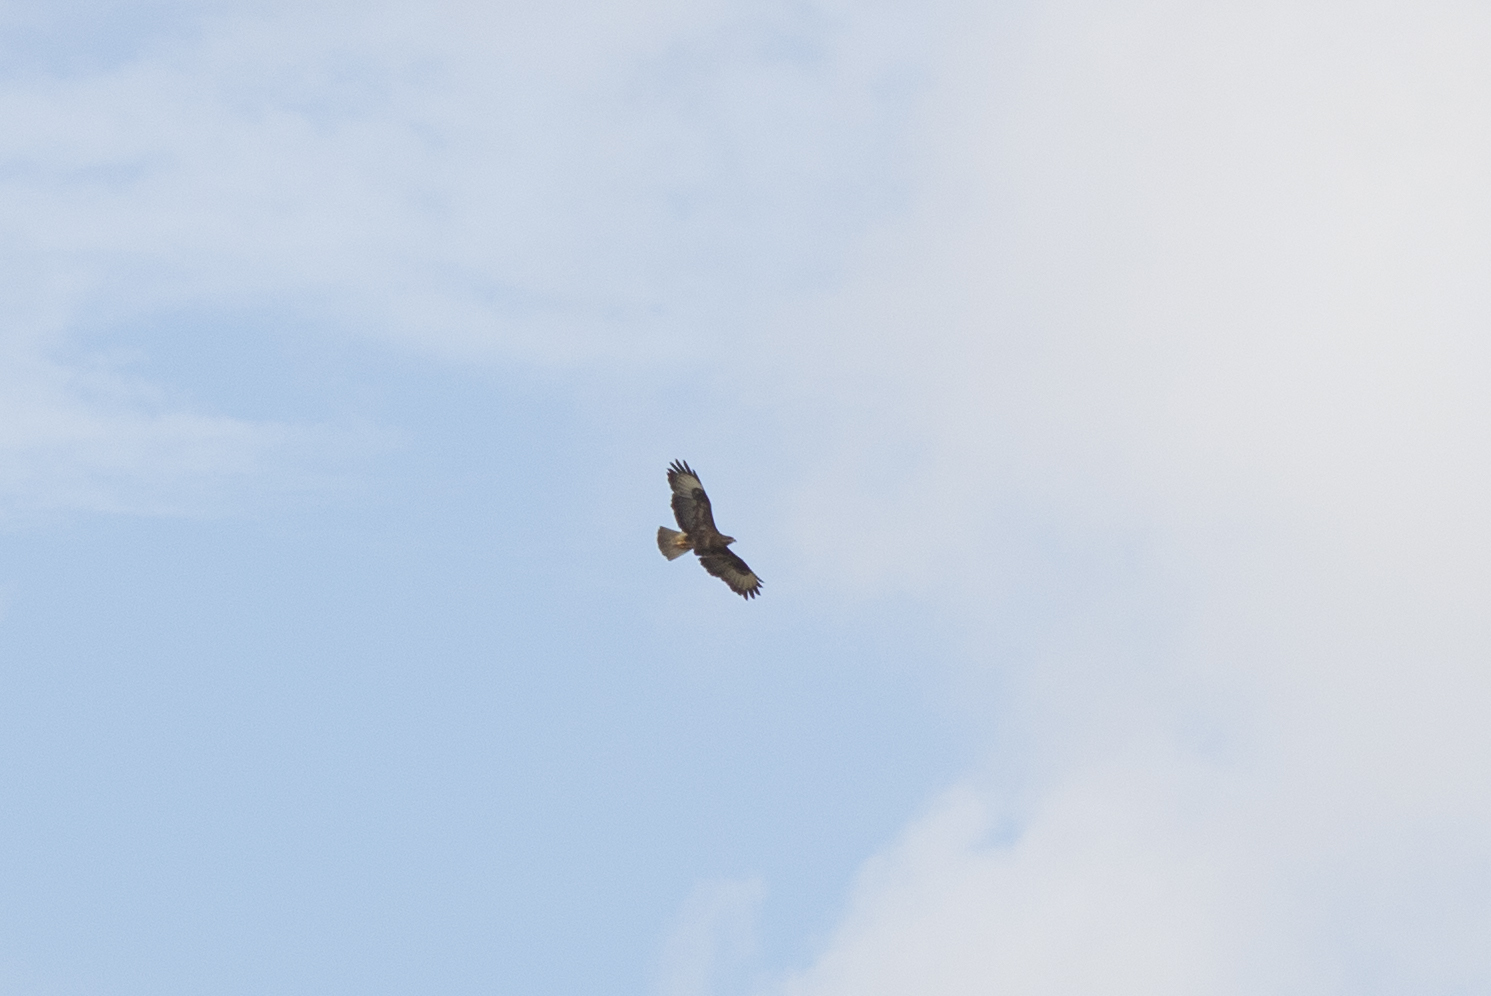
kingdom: Animalia
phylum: Chordata
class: Aves
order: Accipitriformes
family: Accipitridae
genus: Buteo
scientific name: Buteo buteo
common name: Common buzzard
